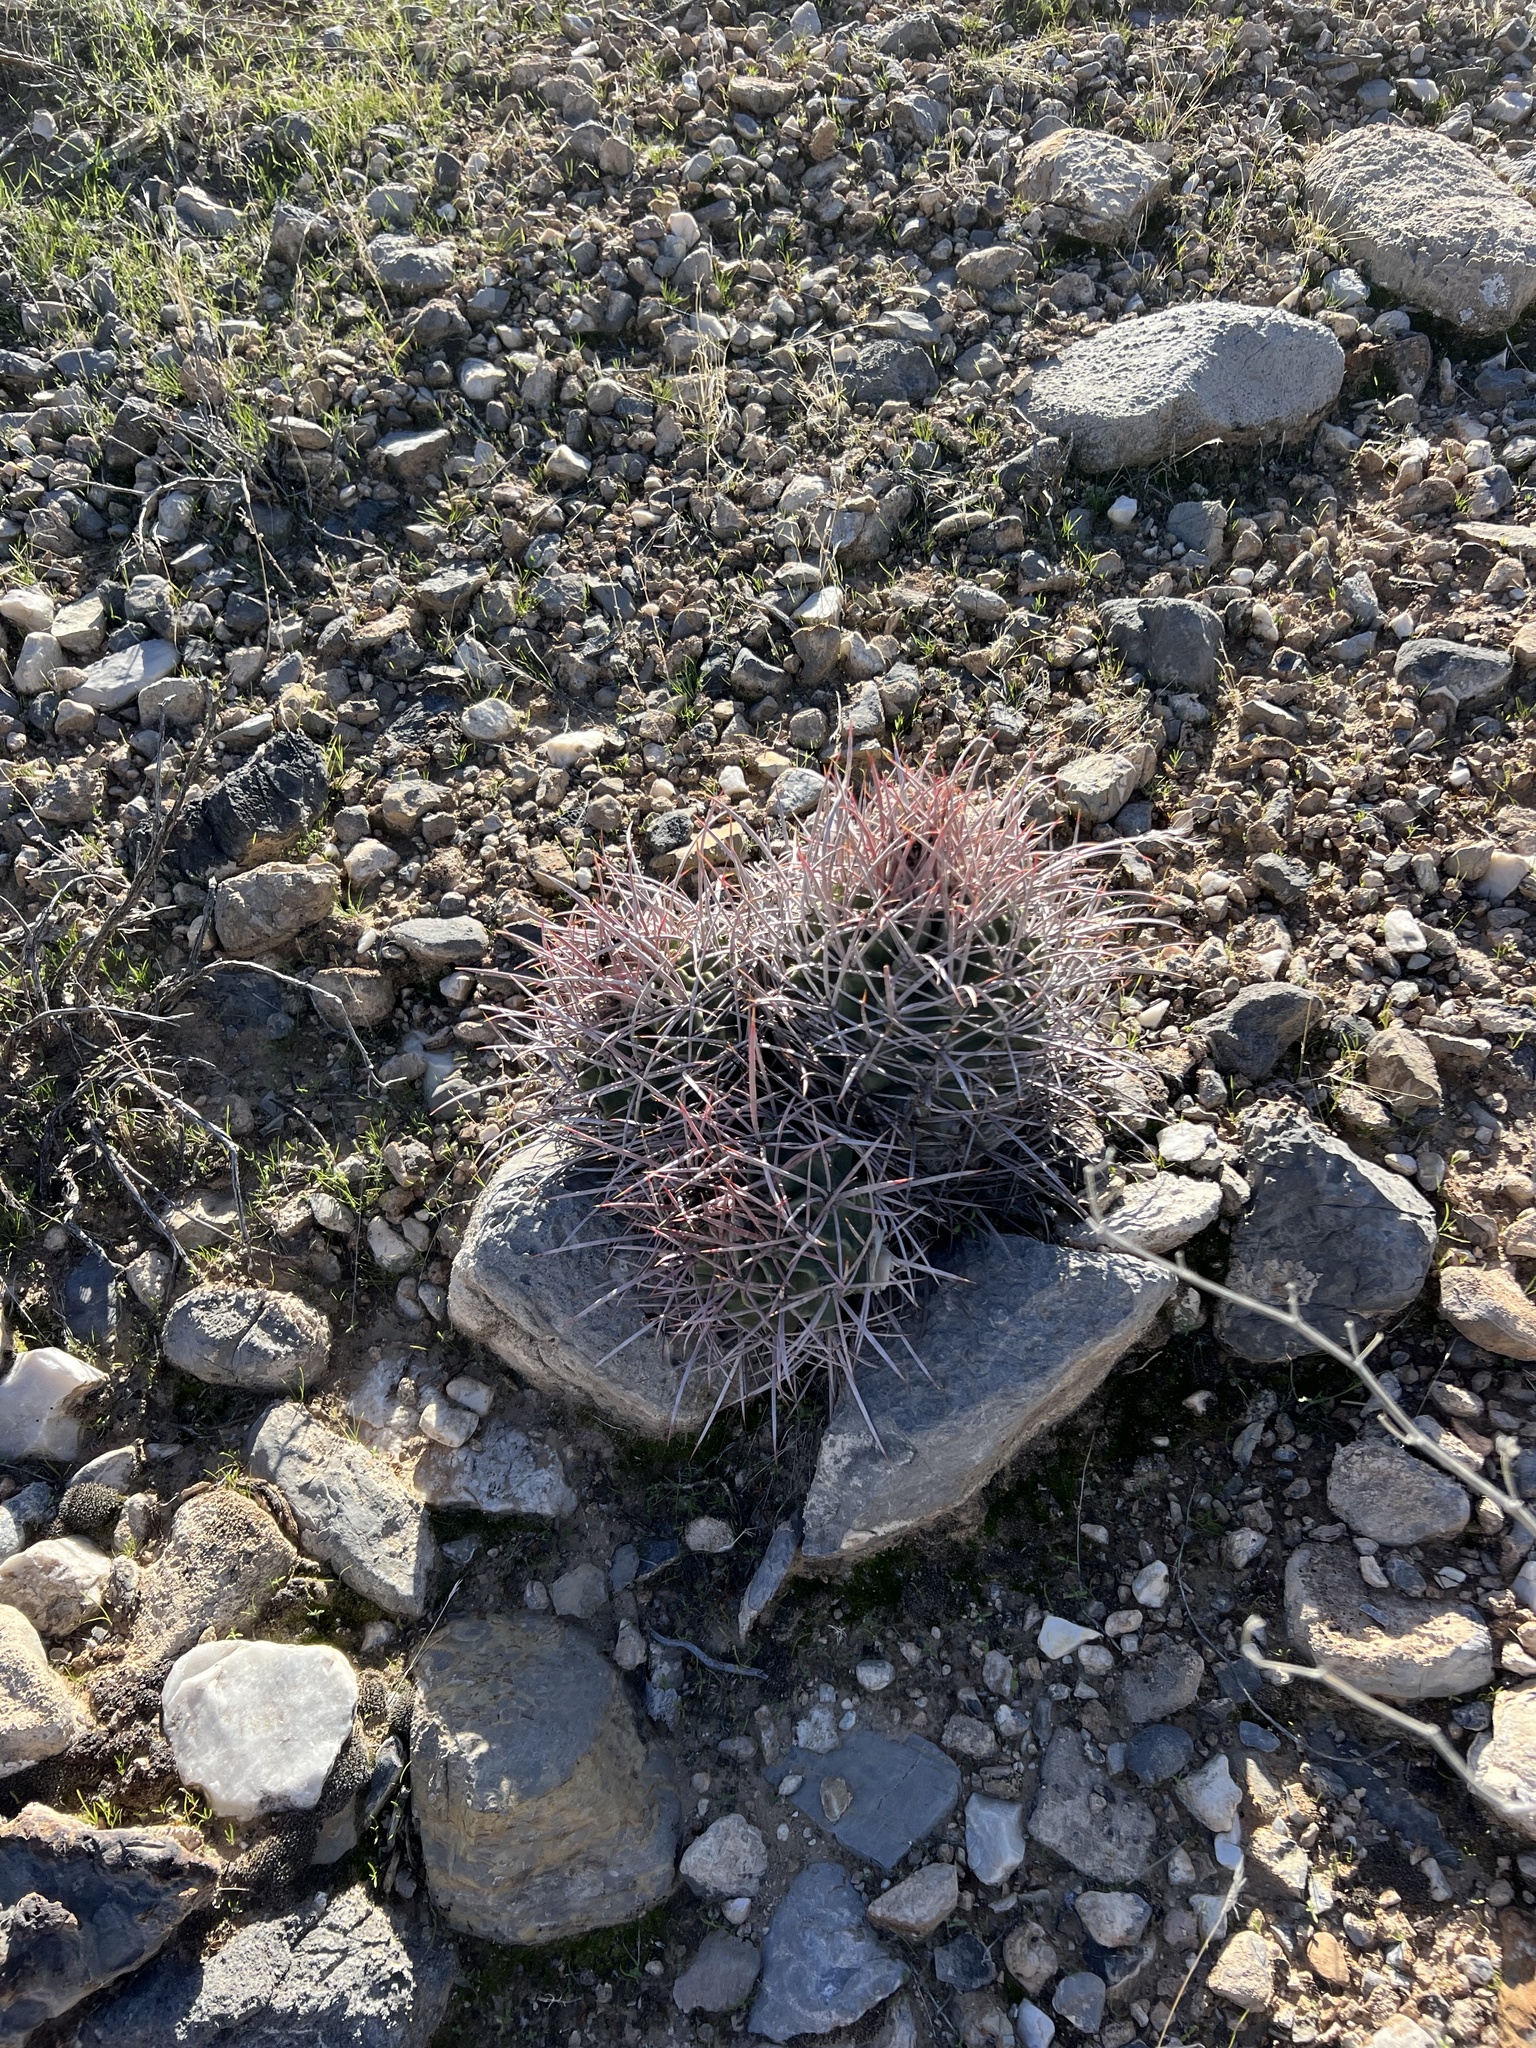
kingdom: Plantae
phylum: Tracheophyta
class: Magnoliopsida
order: Caryophyllales
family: Cactaceae
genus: Echinocactus
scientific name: Echinocactus polycephalus
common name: Cottontop cactus
